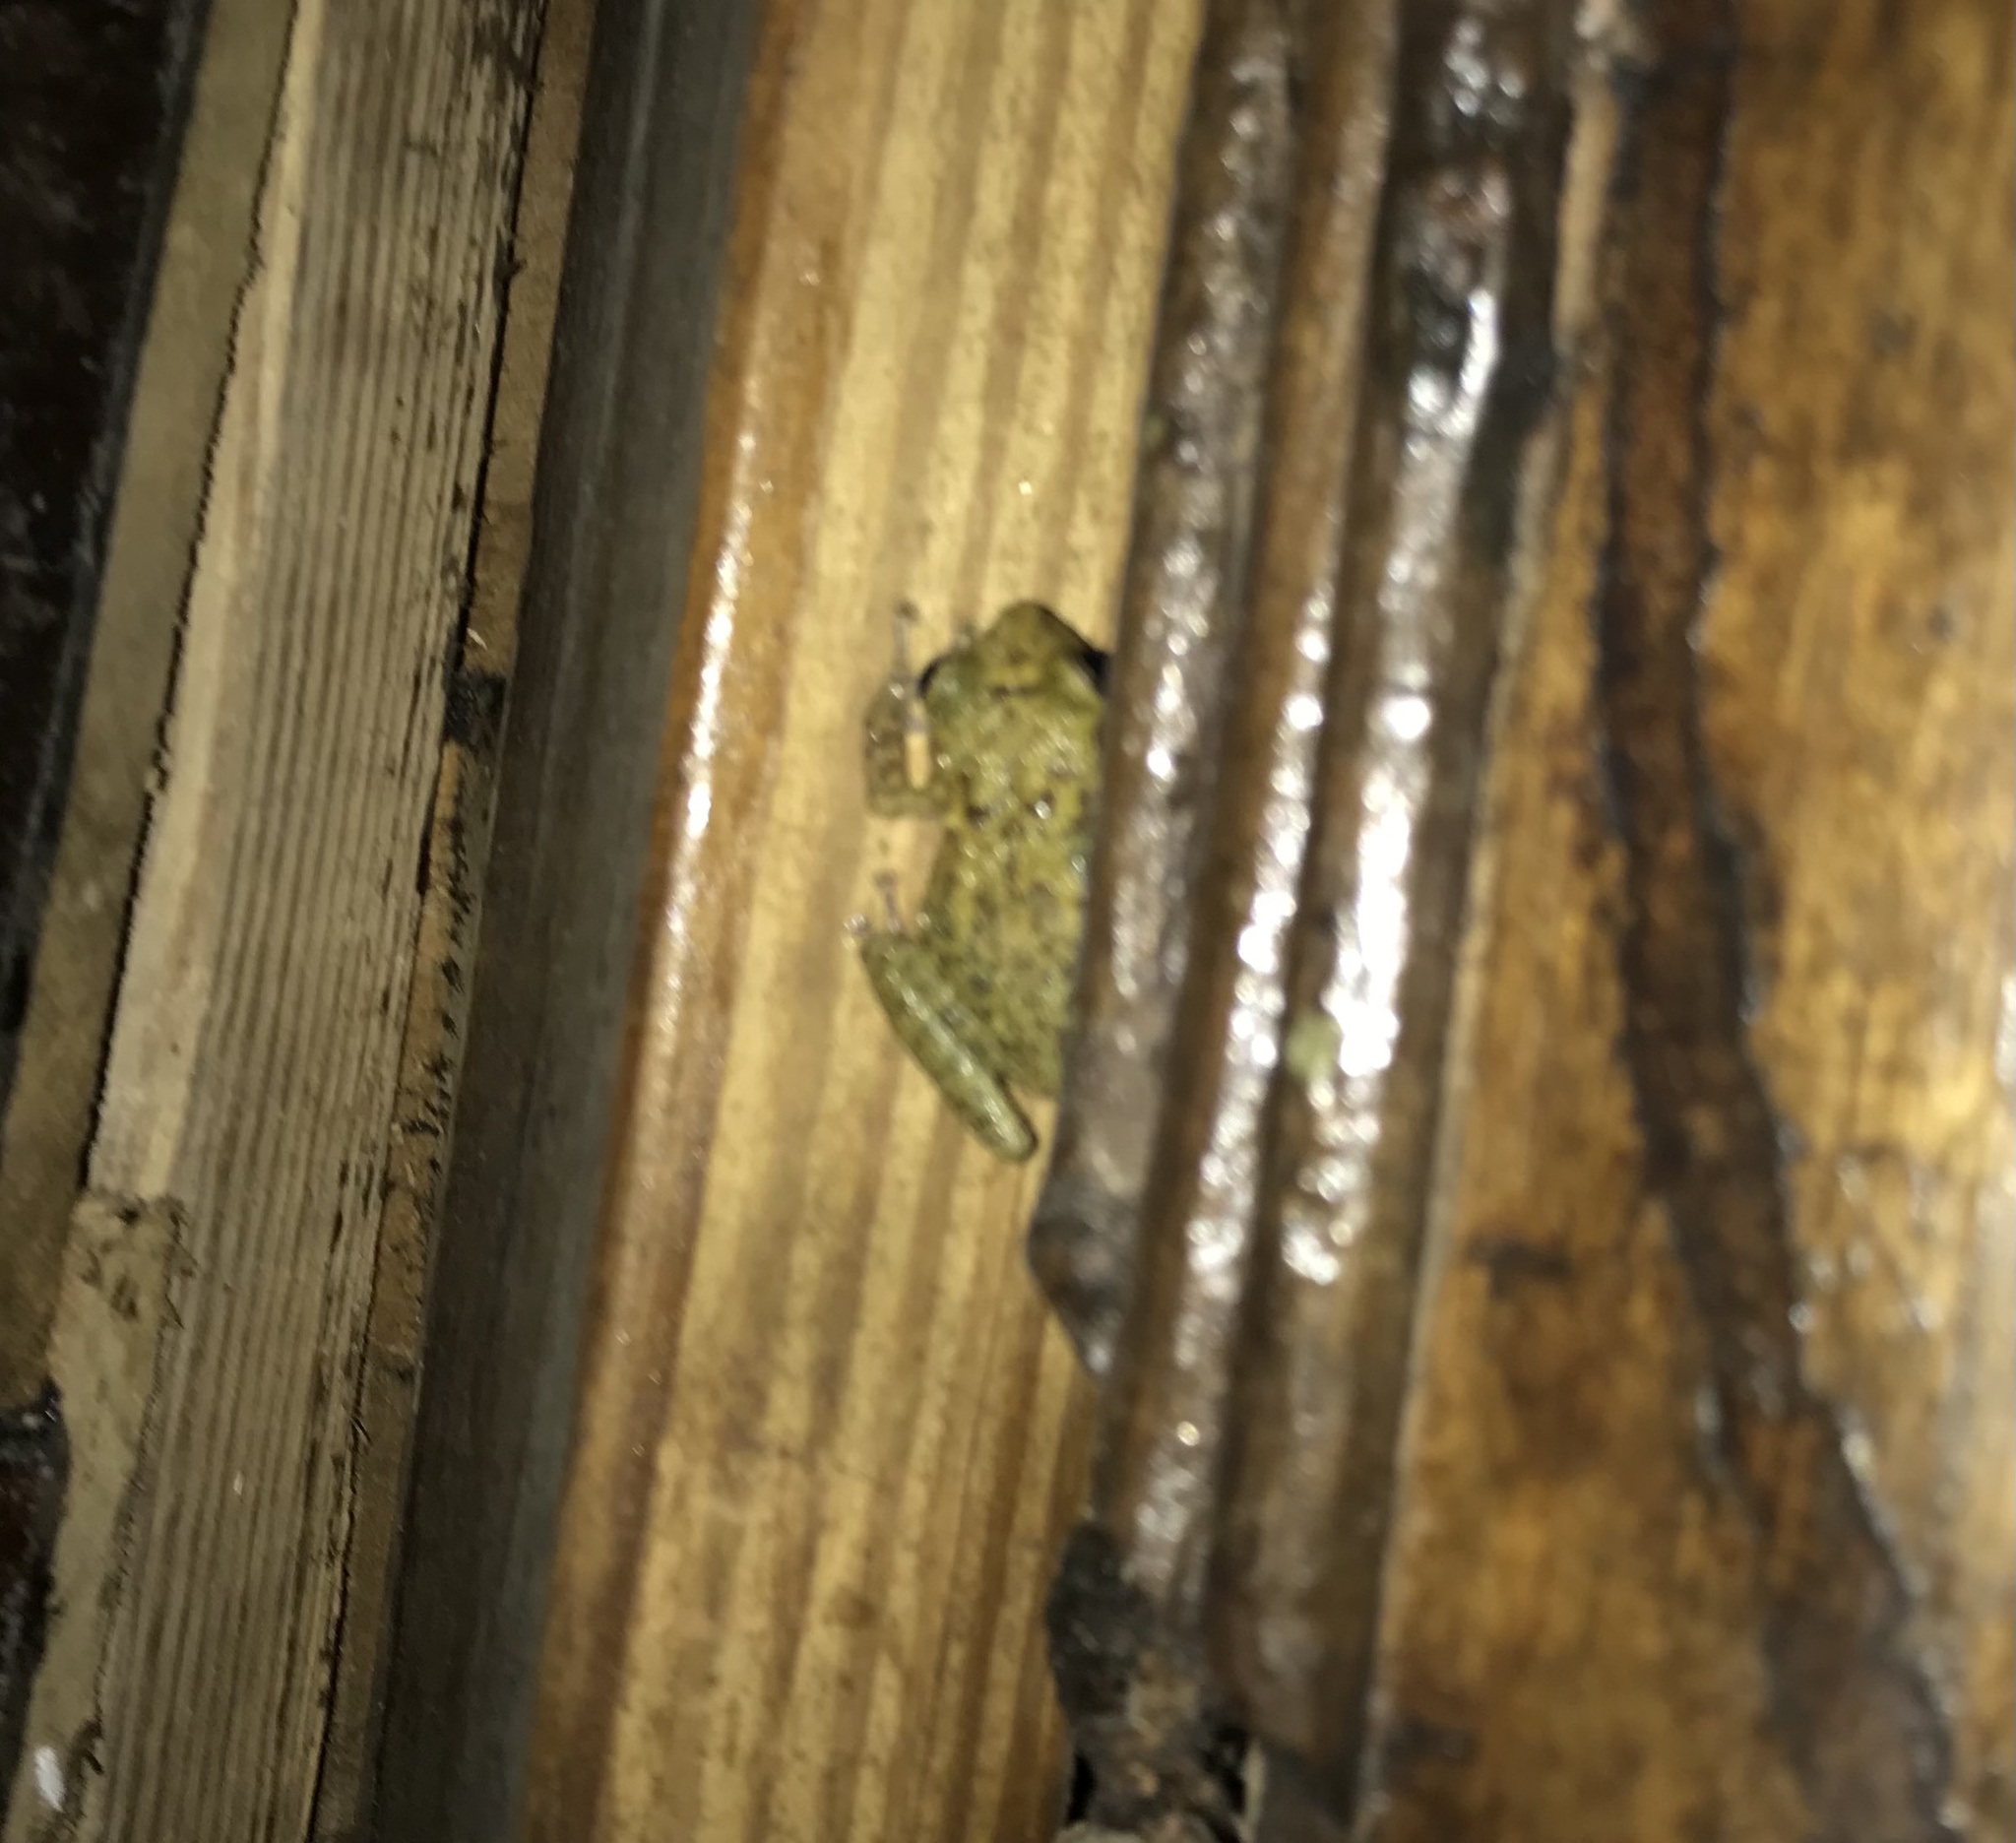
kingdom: Animalia
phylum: Chordata
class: Amphibia
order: Anura
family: Hylidae
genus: Osteopilus
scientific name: Osteopilus dominicensis
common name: Hispaniolan common treefrog
